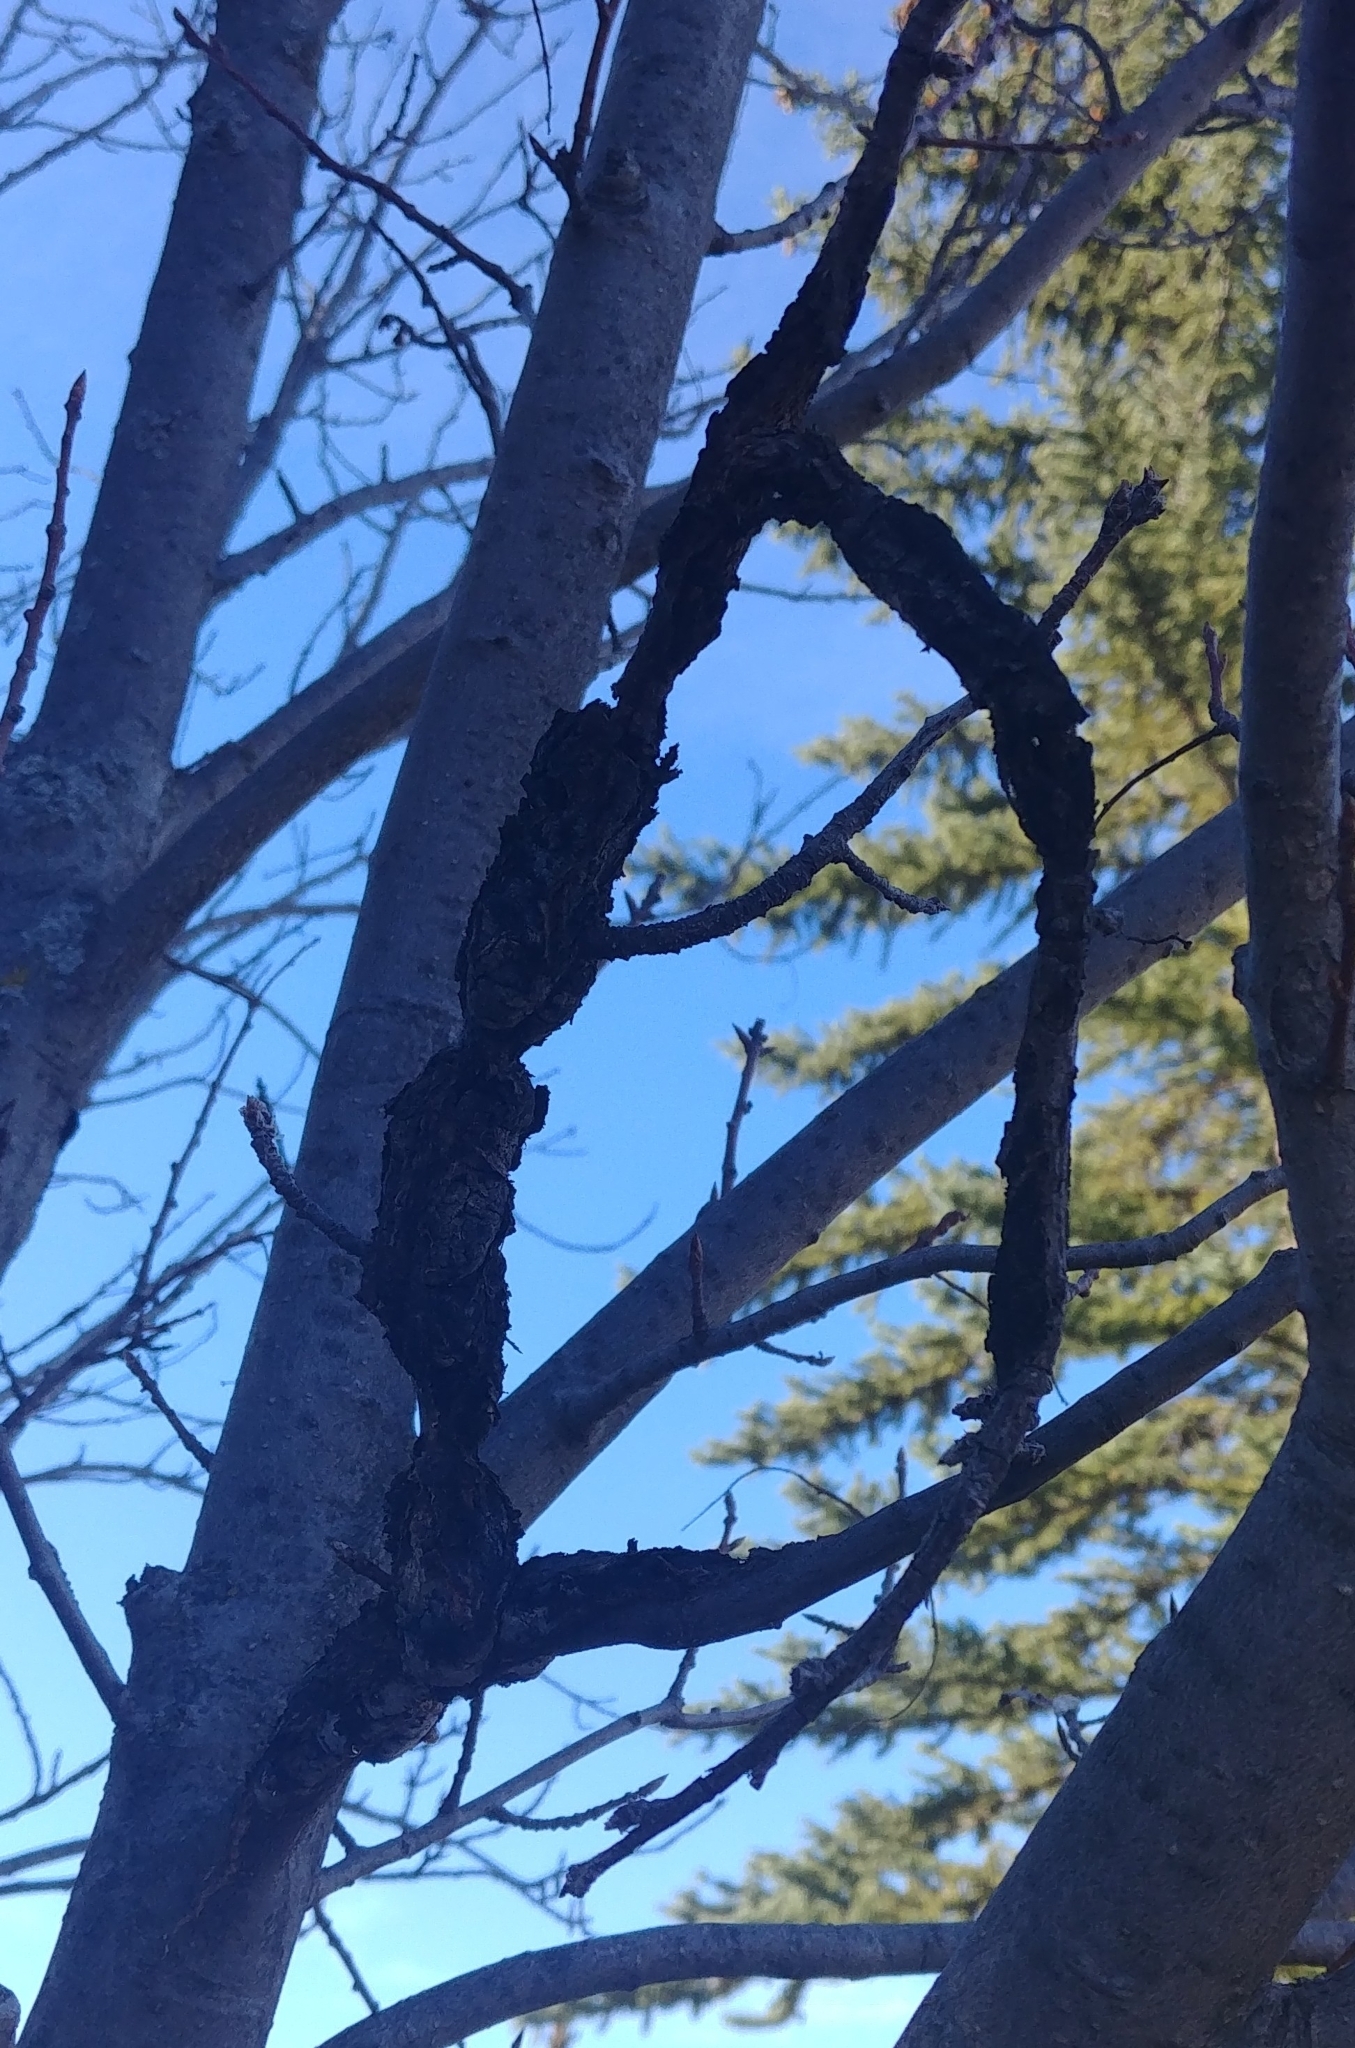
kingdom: Fungi
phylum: Ascomycota
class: Dothideomycetes
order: Venturiales
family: Venturiaceae
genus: Apiosporina
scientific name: Apiosporina morbosa
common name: Black knot
